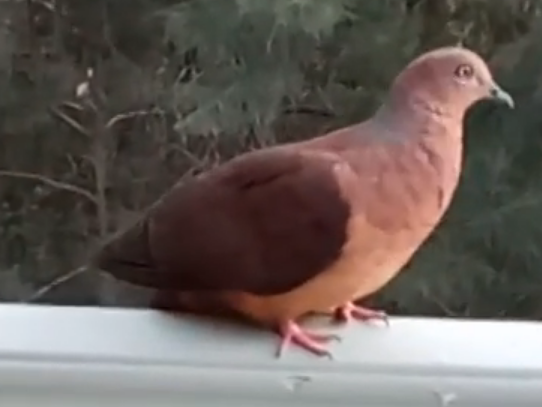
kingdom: Animalia
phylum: Chordata
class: Aves
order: Columbiformes
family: Columbidae
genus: Macropygia
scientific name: Macropygia phasianella
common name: Brown cuckoo-dove
